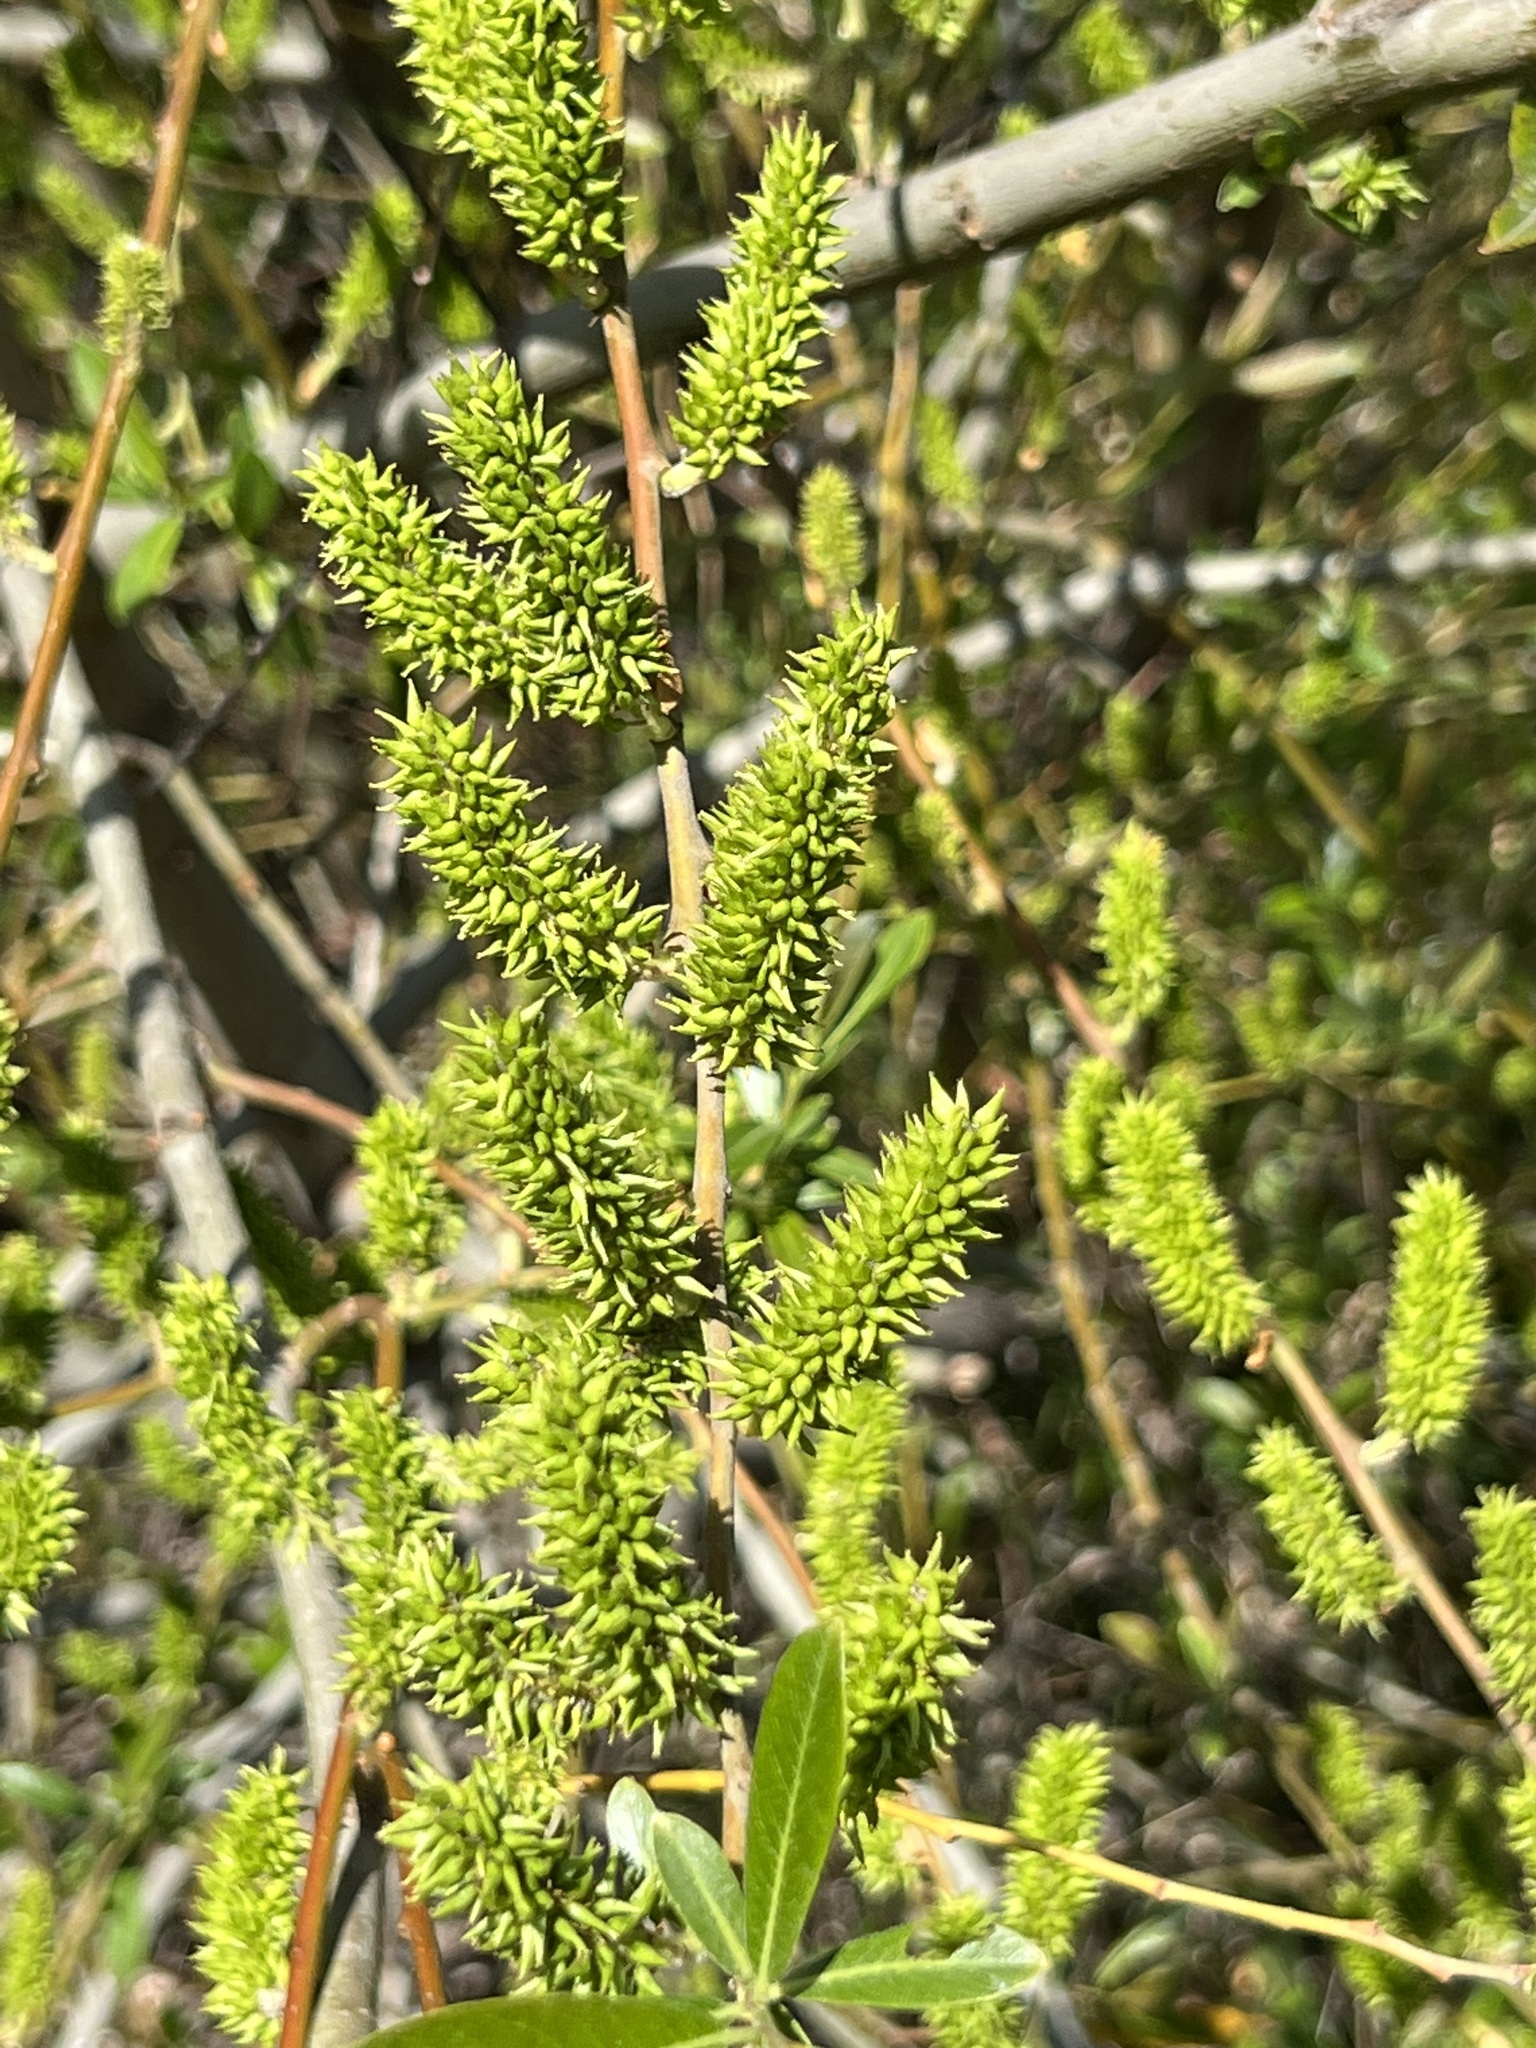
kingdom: Plantae
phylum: Tracheophyta
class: Magnoliopsida
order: Malpighiales
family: Salicaceae
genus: Salix
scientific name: Salix lasiolepis
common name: Arroyo willow
